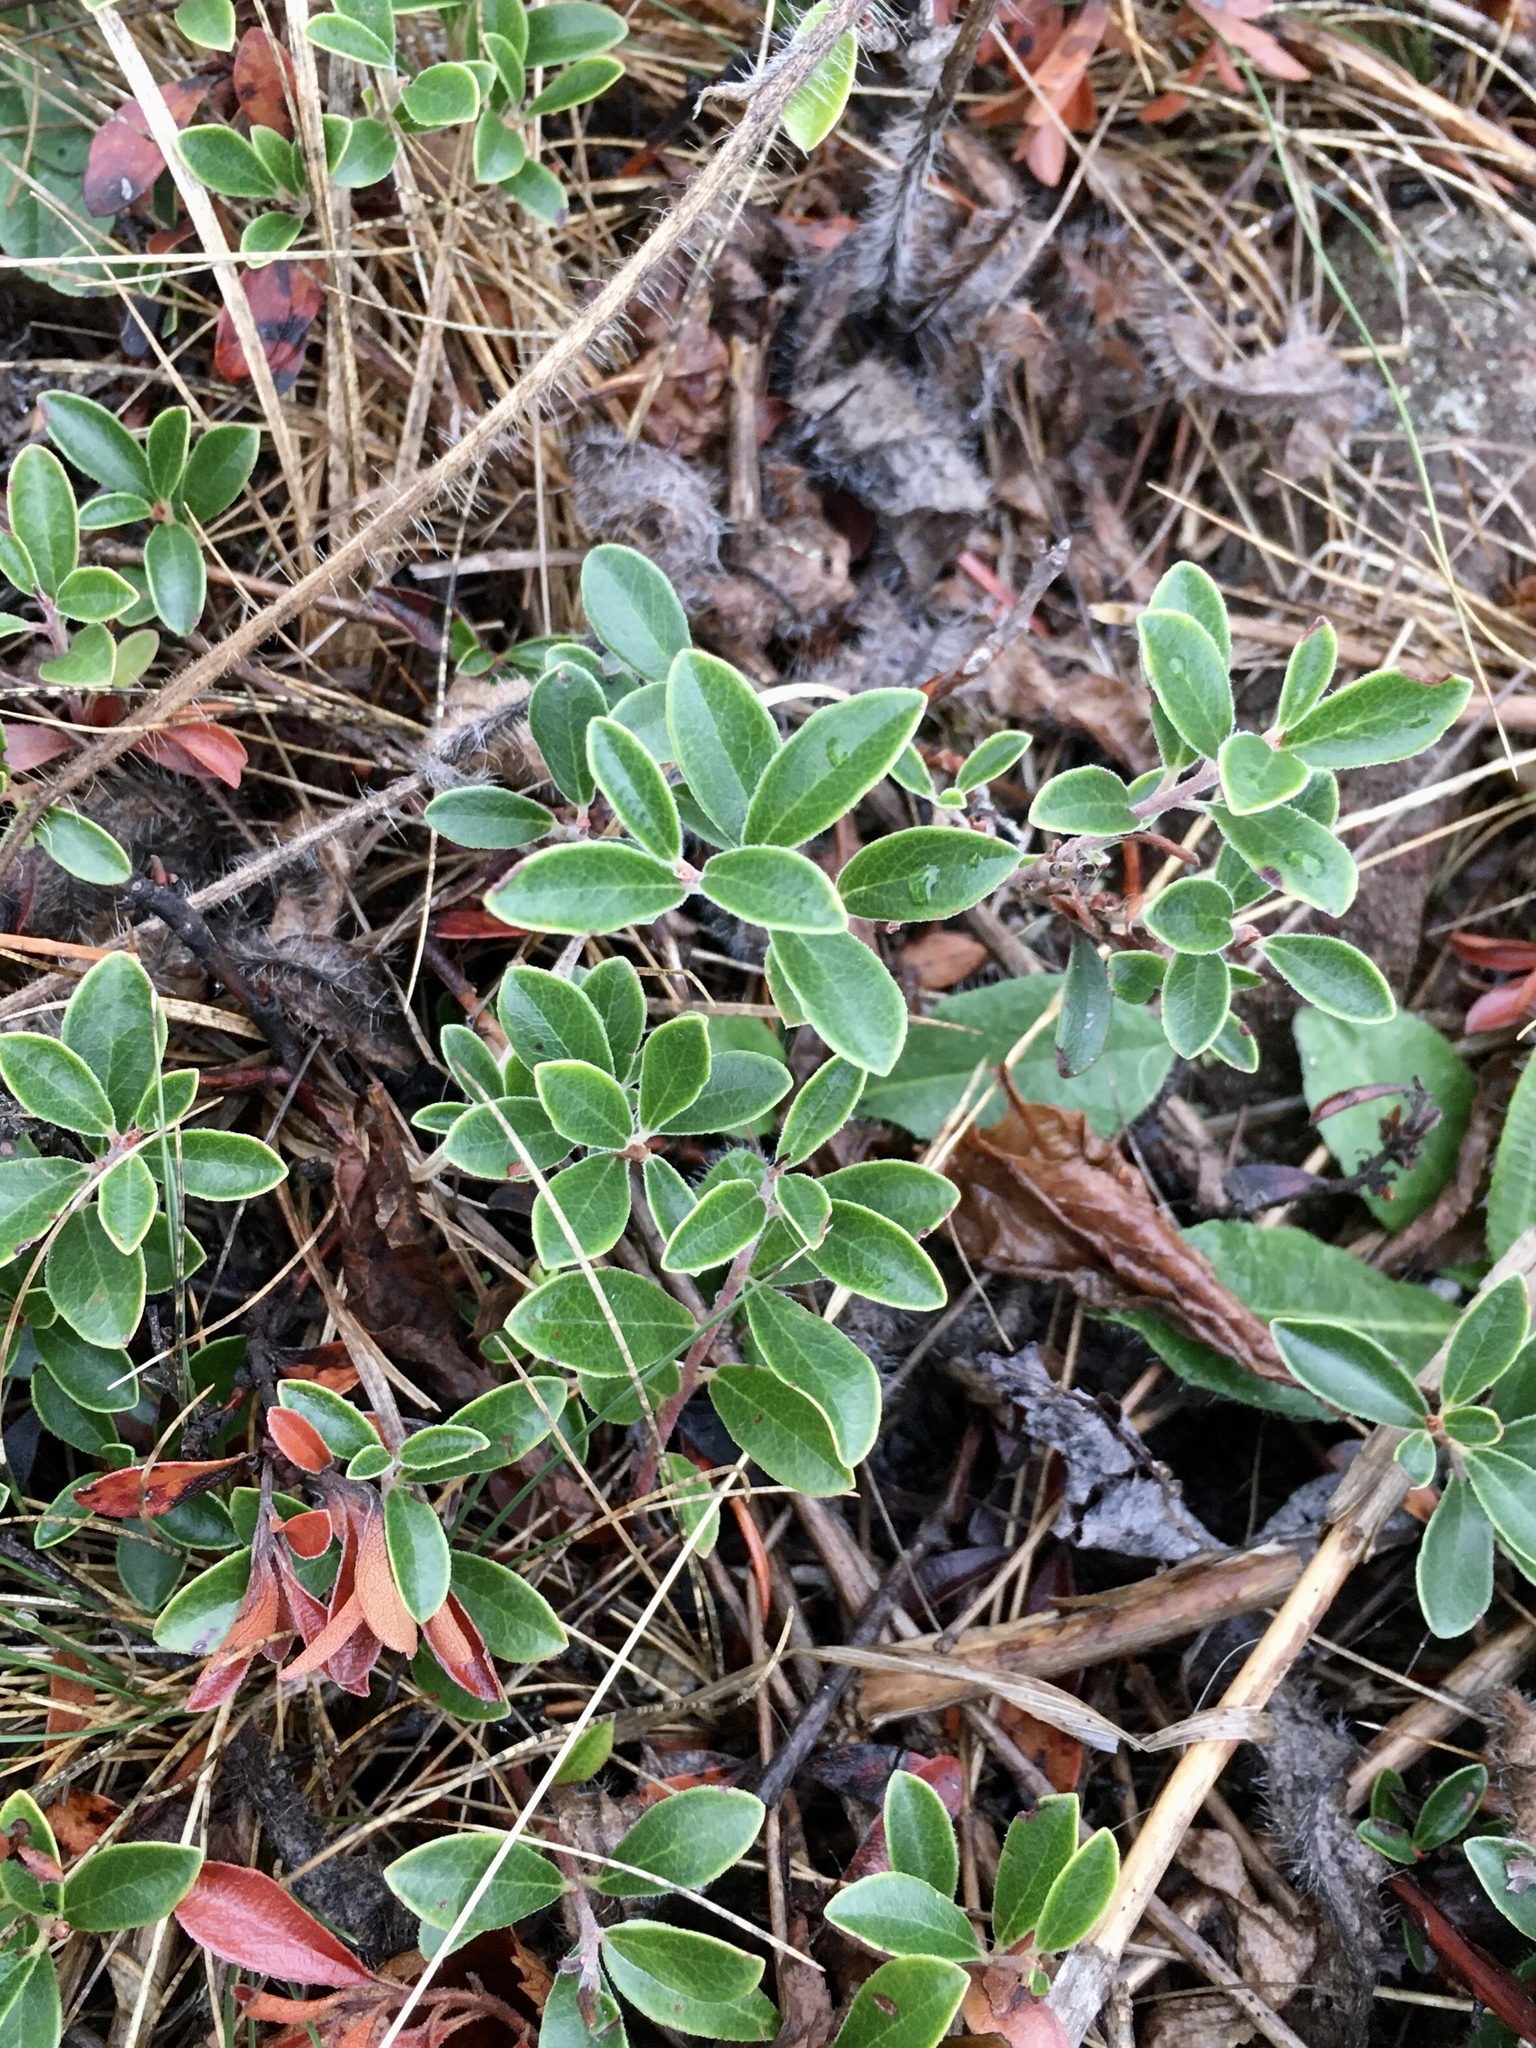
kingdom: Plantae
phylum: Tracheophyta
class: Magnoliopsida
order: Ericales
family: Ericaceae
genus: Arctostaphylos
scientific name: Arctostaphylos uva-ursi
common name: Bearberry
